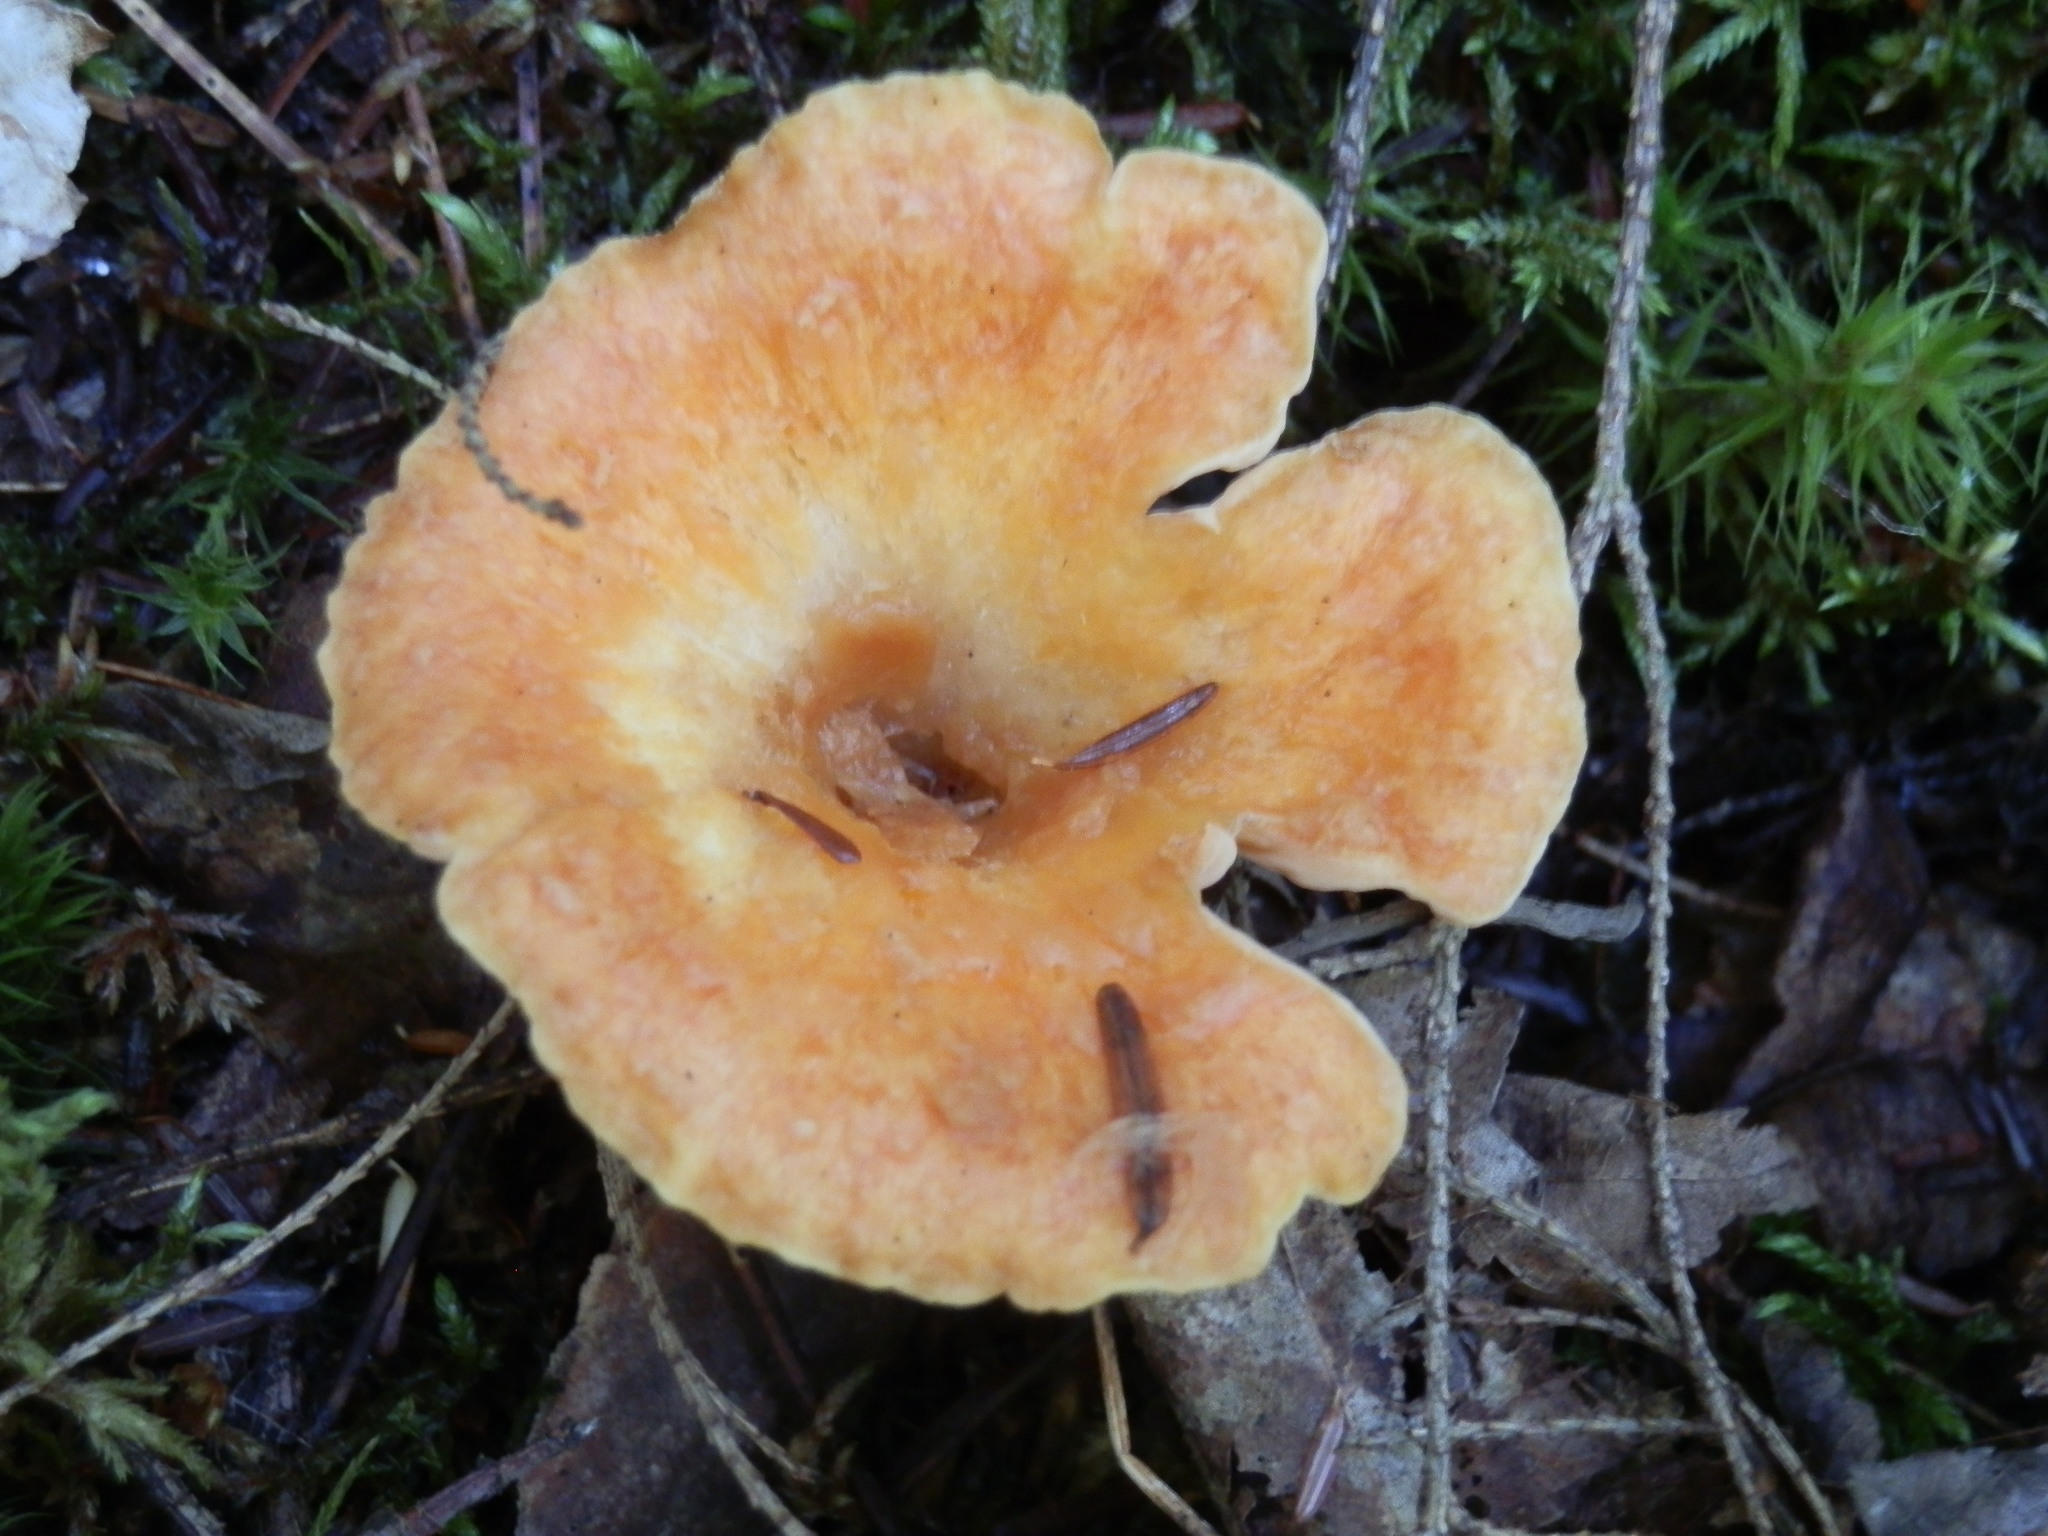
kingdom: Fungi
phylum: Basidiomycota
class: Agaricomycetes
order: Gomphales
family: Gomphaceae
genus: Turbinellus
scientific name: Turbinellus floccosus
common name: Scaly chanterelle
